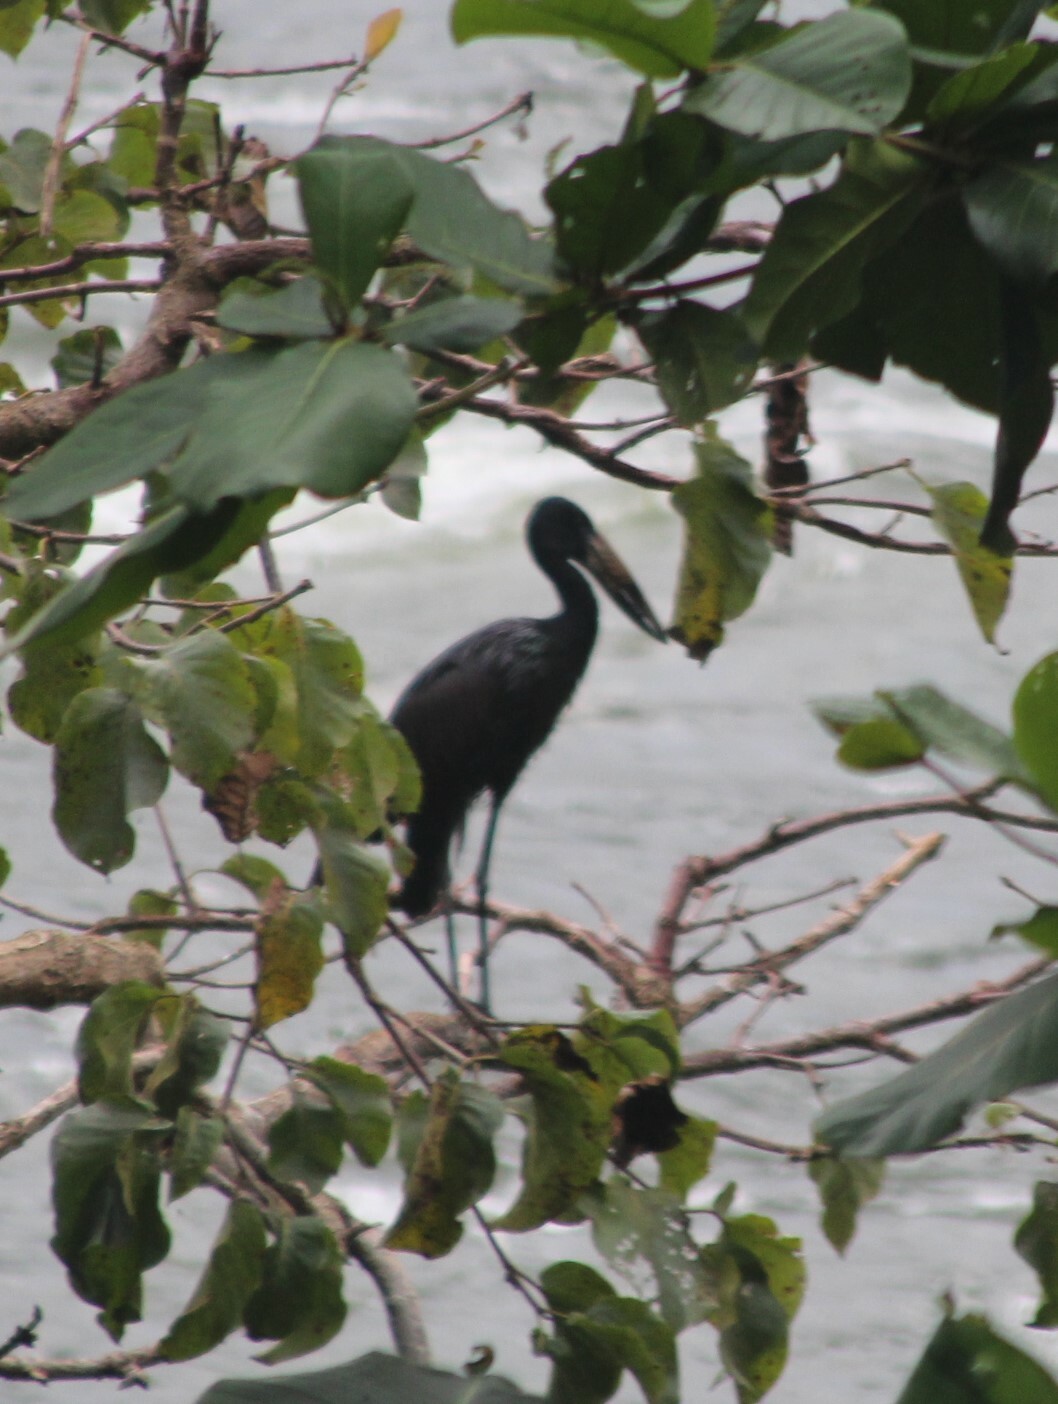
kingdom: Animalia
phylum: Chordata
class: Aves
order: Ciconiiformes
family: Ciconiidae
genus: Anastomus
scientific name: Anastomus lamelligerus
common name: African openbill
